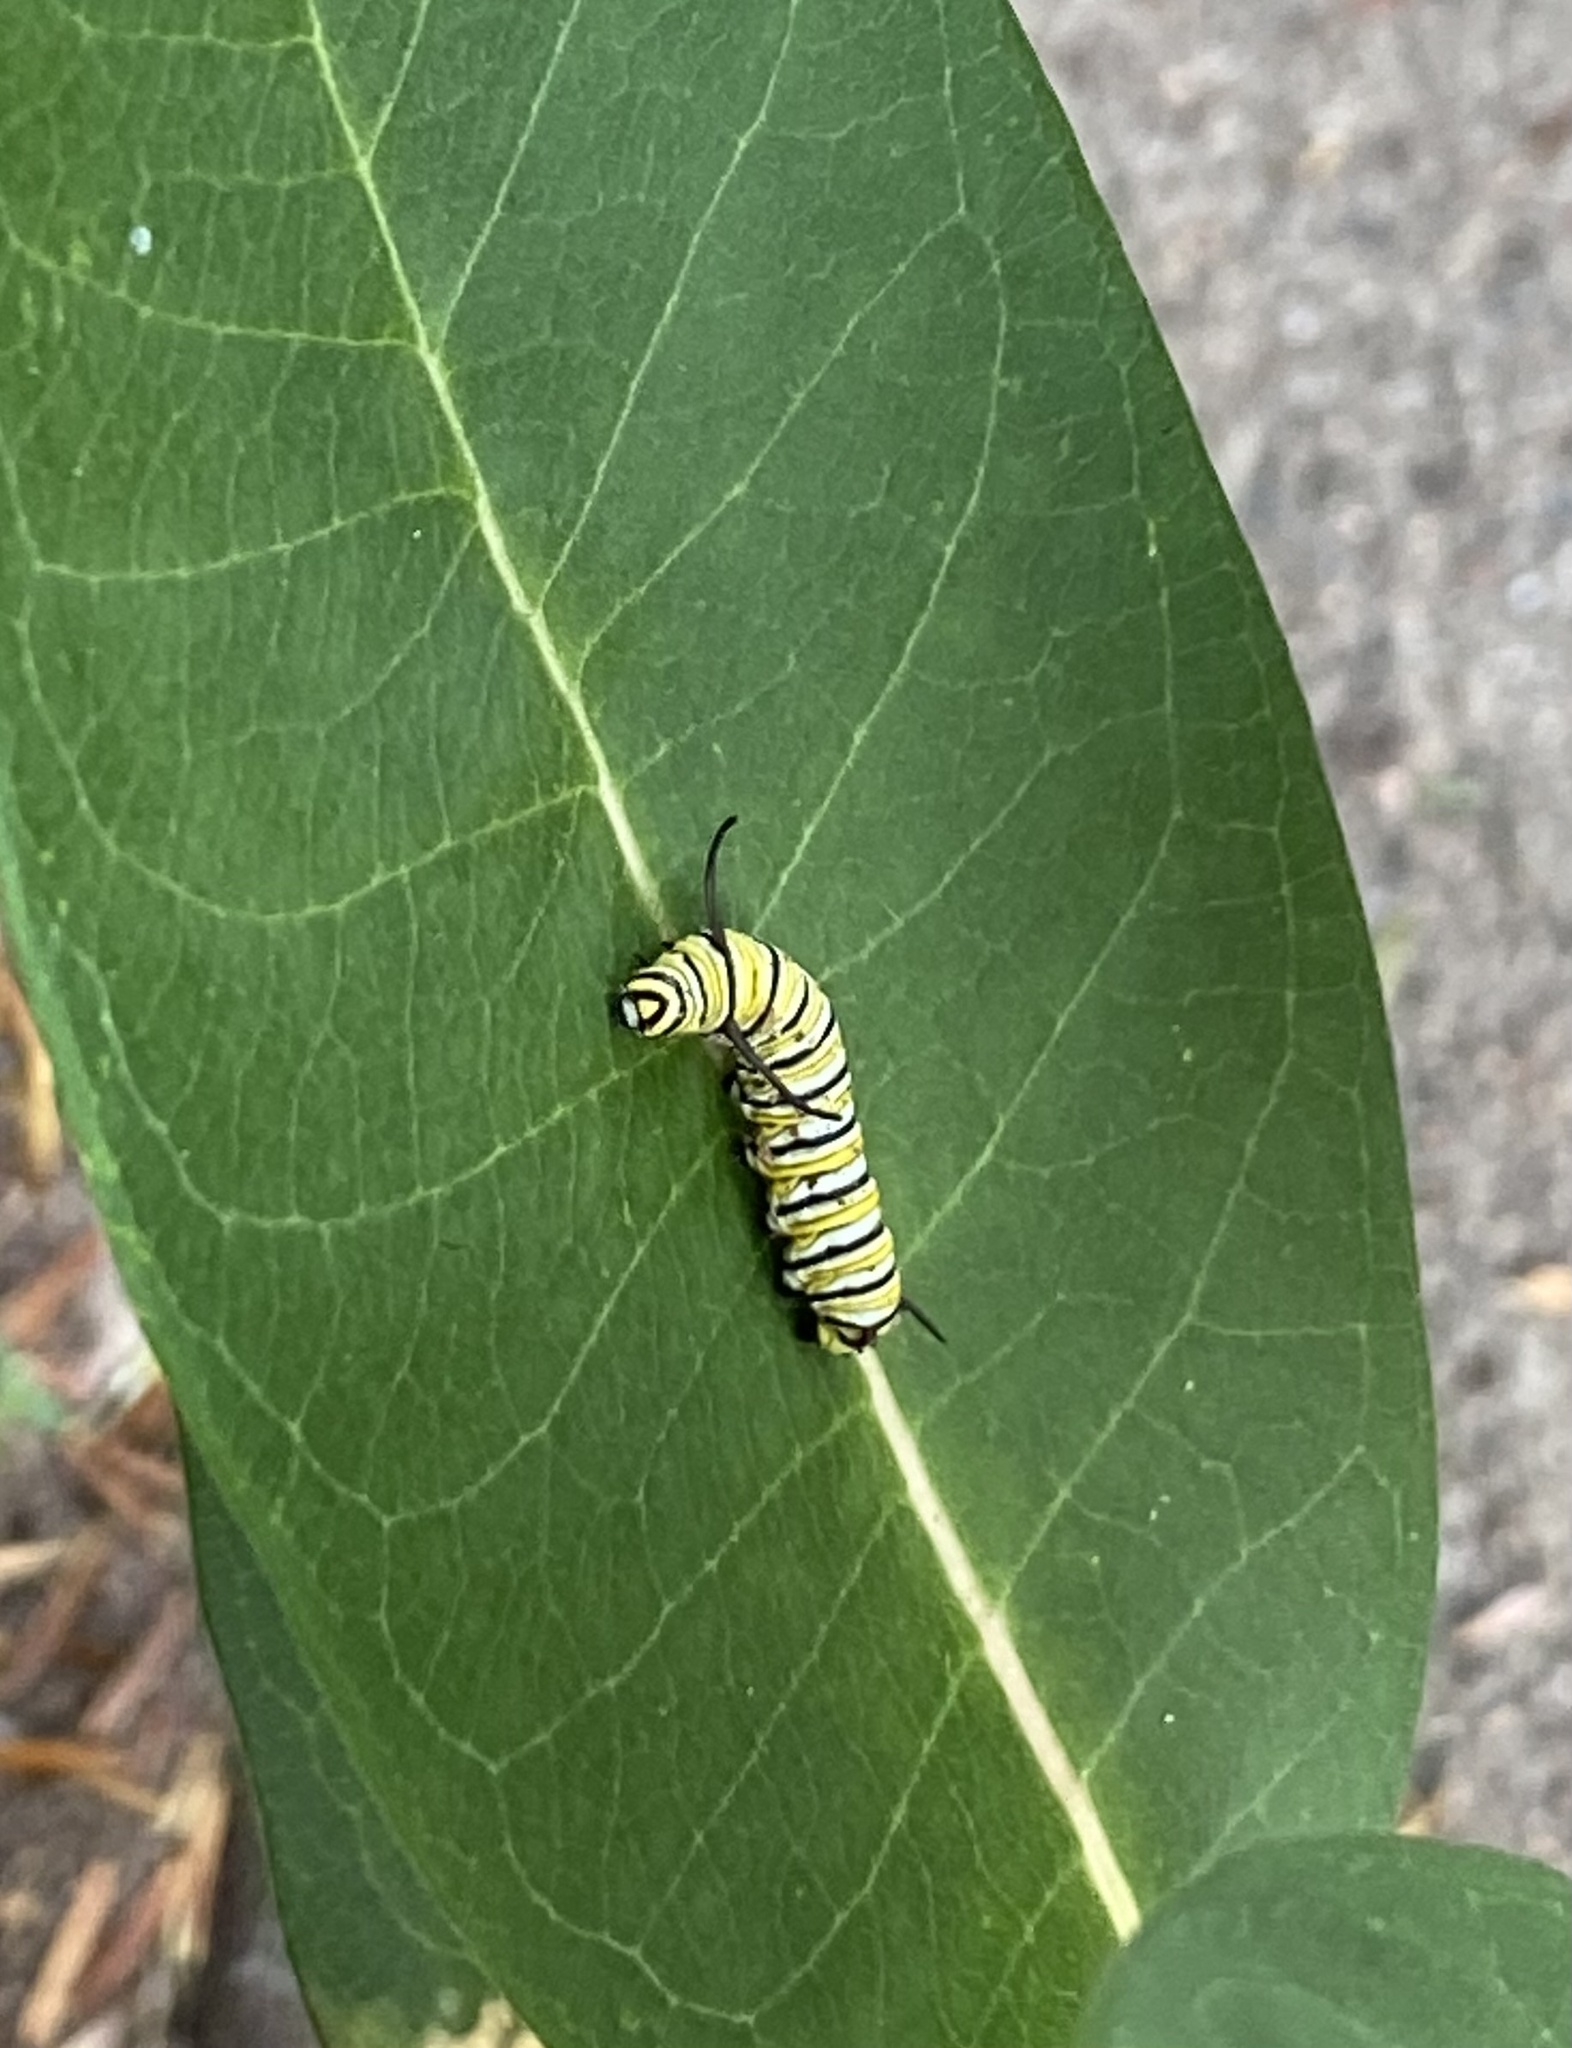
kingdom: Animalia
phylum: Arthropoda
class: Insecta
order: Lepidoptera
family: Nymphalidae
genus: Danaus
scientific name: Danaus plexippus
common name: Monarch
